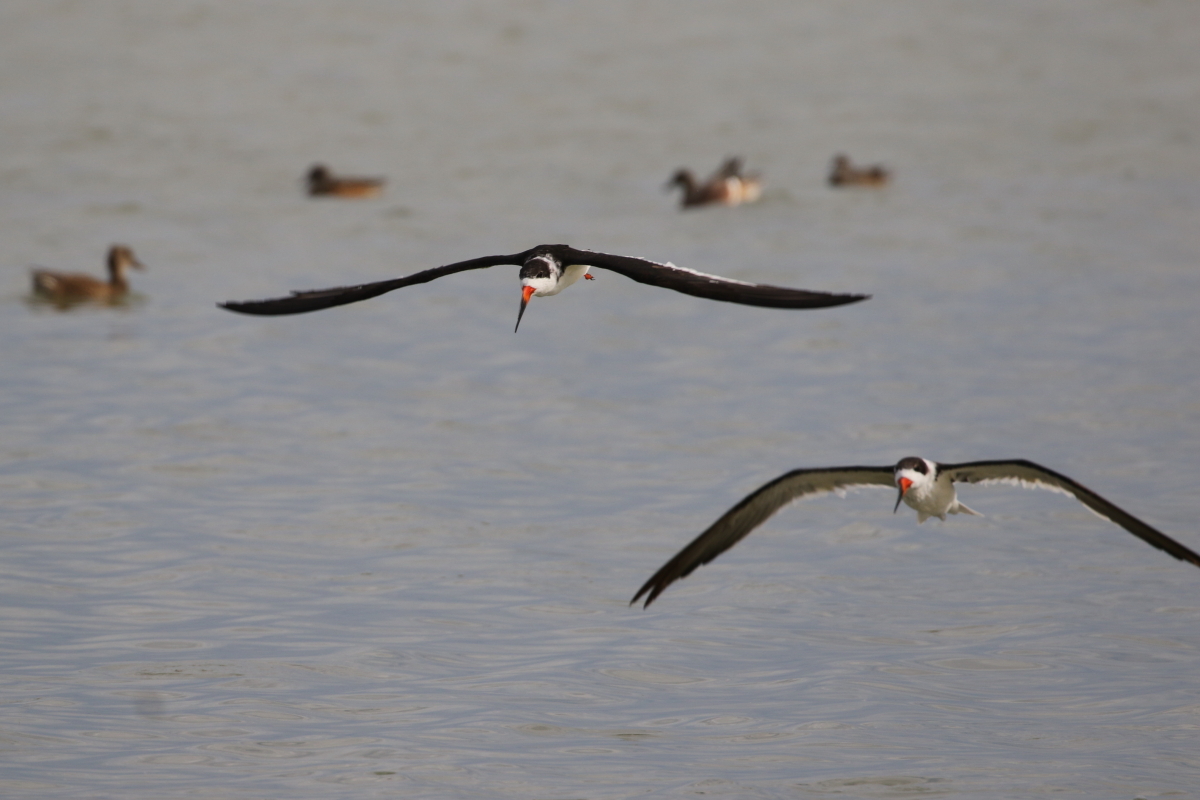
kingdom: Animalia
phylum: Chordata
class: Aves
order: Charadriiformes
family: Laridae
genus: Rynchops
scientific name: Rynchops niger
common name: Black skimmer
